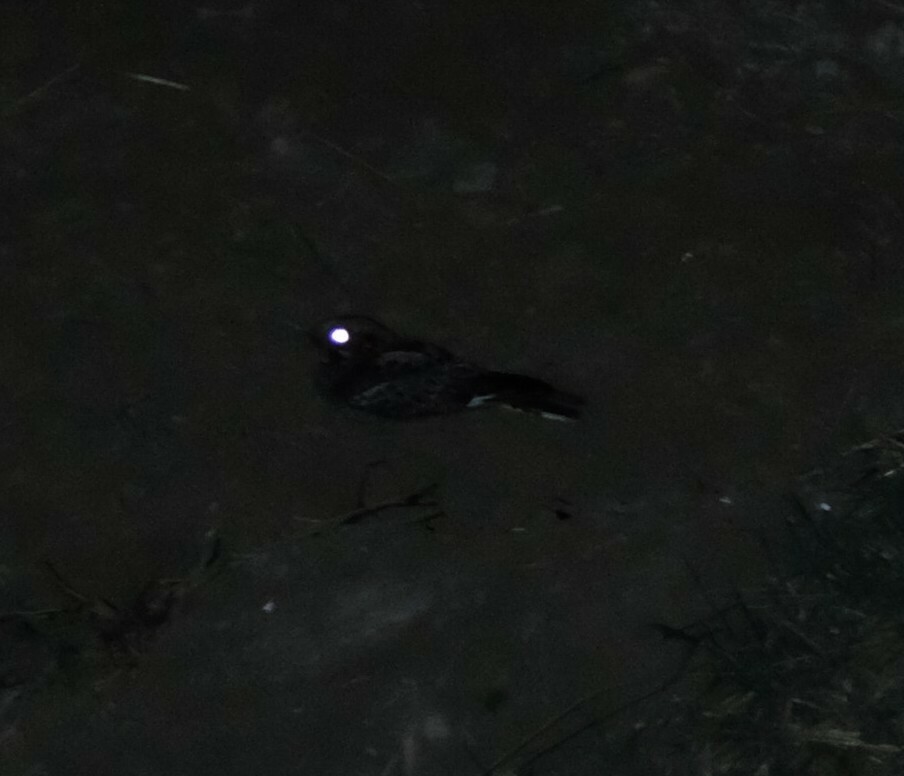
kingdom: Animalia
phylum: Chordata
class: Aves
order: Caprimulgiformes
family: Caprimulgidae
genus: Caprimulgus
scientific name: Caprimulgus pectoralis
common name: Fiery-necked nightjar
